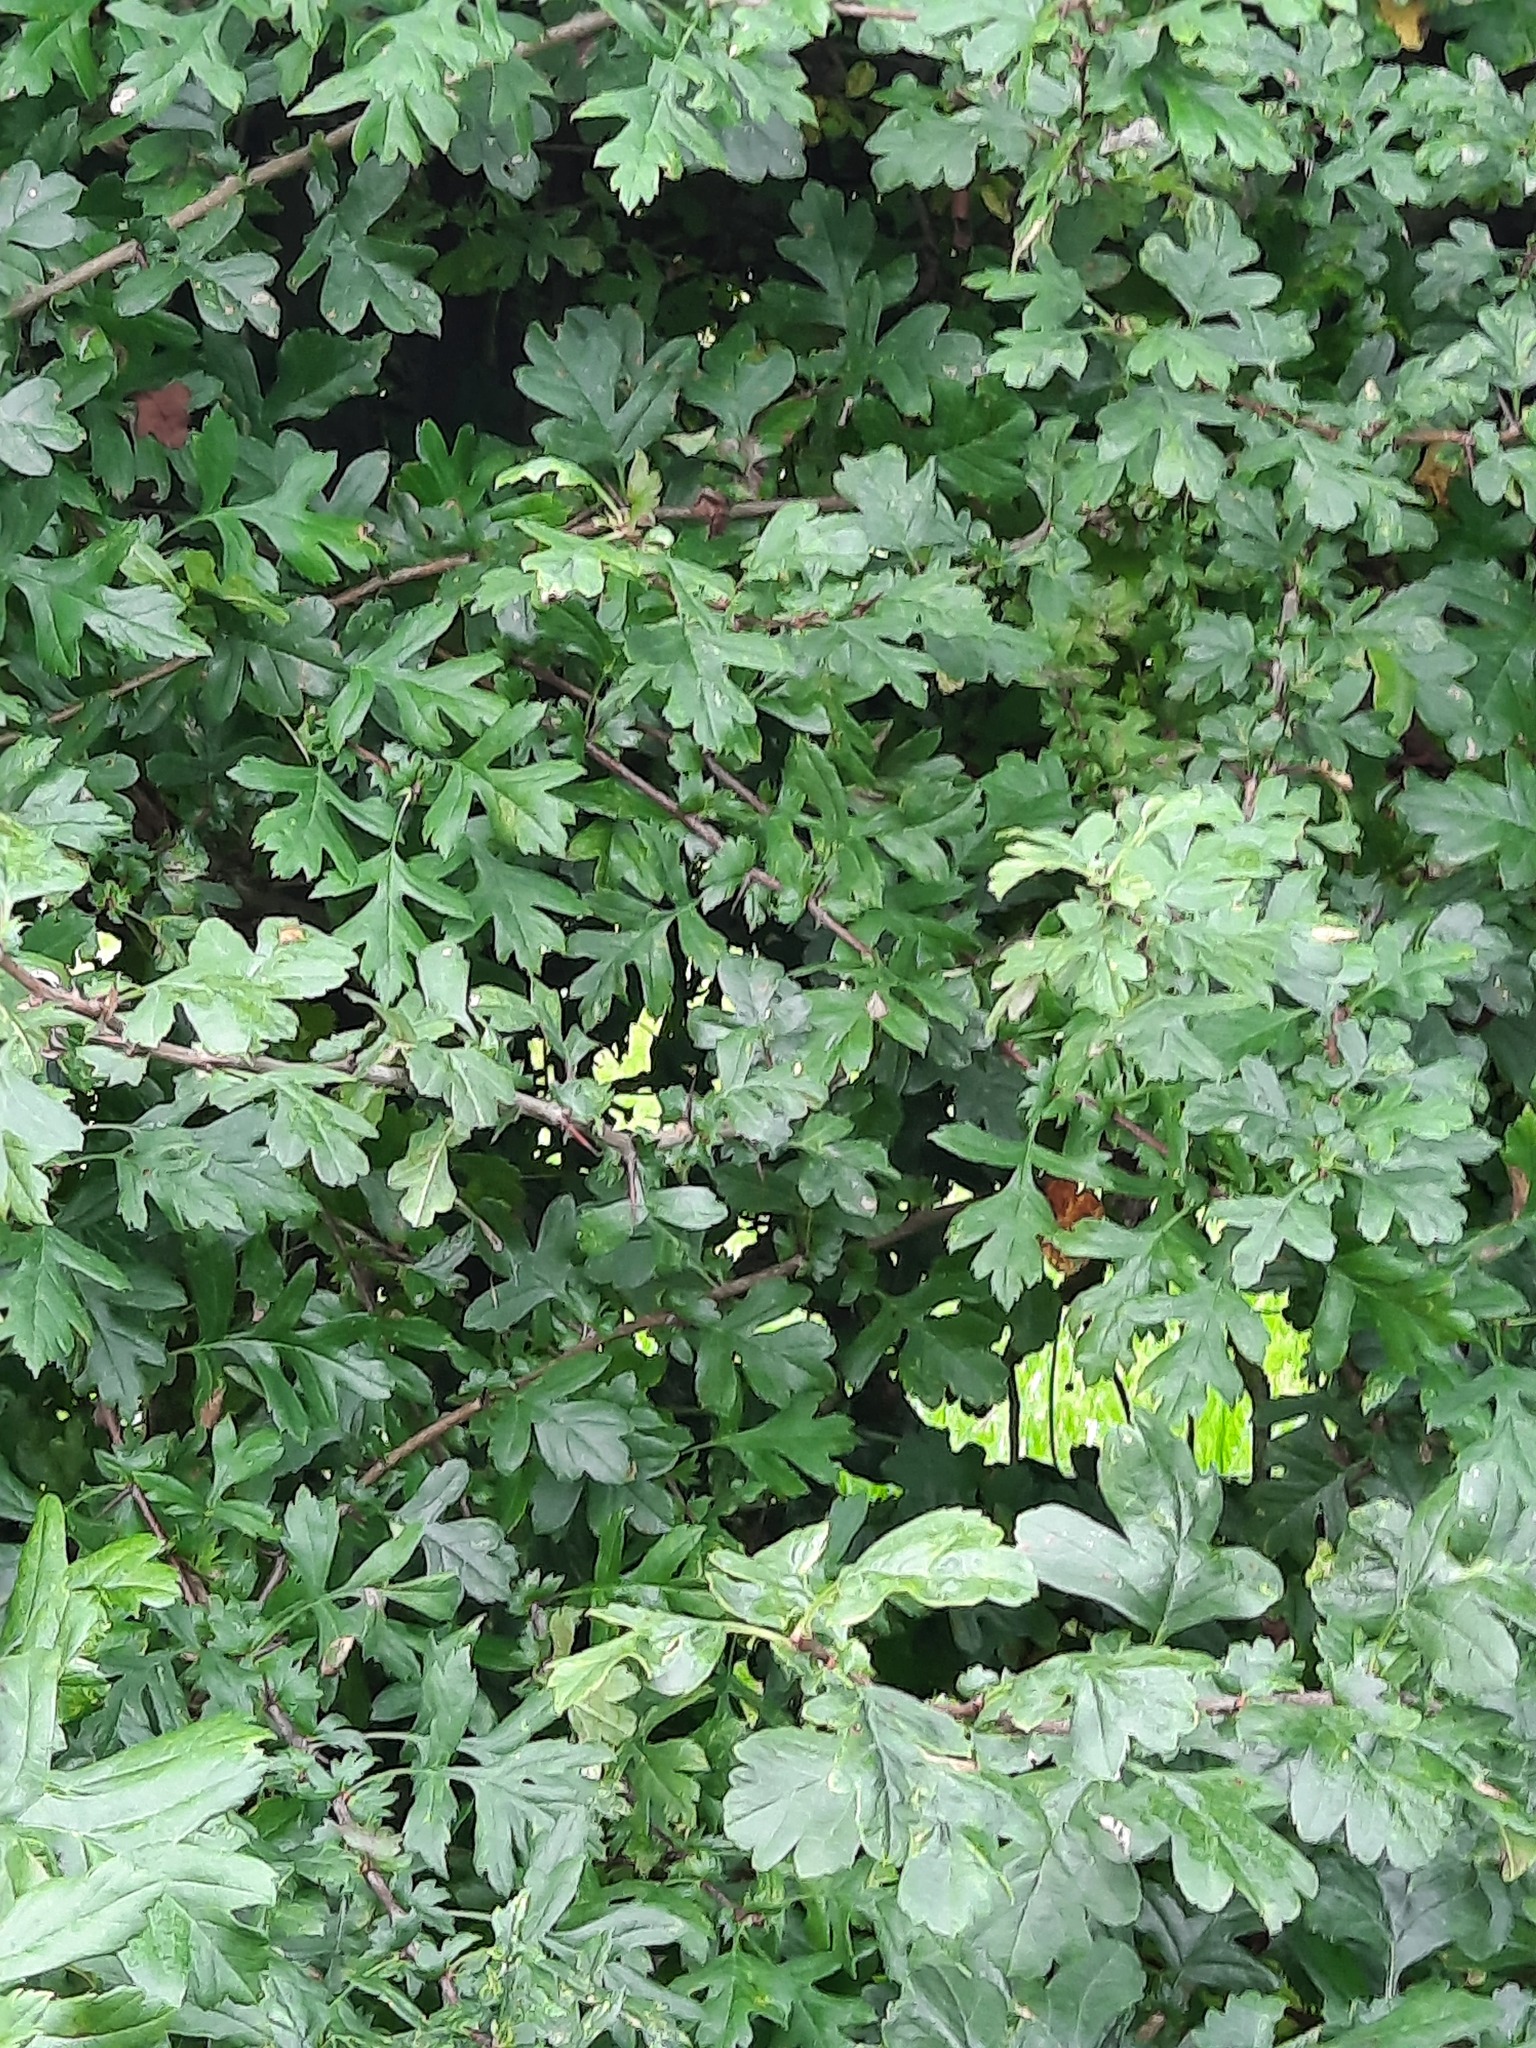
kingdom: Plantae
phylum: Tracheophyta
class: Magnoliopsida
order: Rosales
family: Rosaceae
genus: Crataegus
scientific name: Crataegus monogyna
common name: Hawthorn
